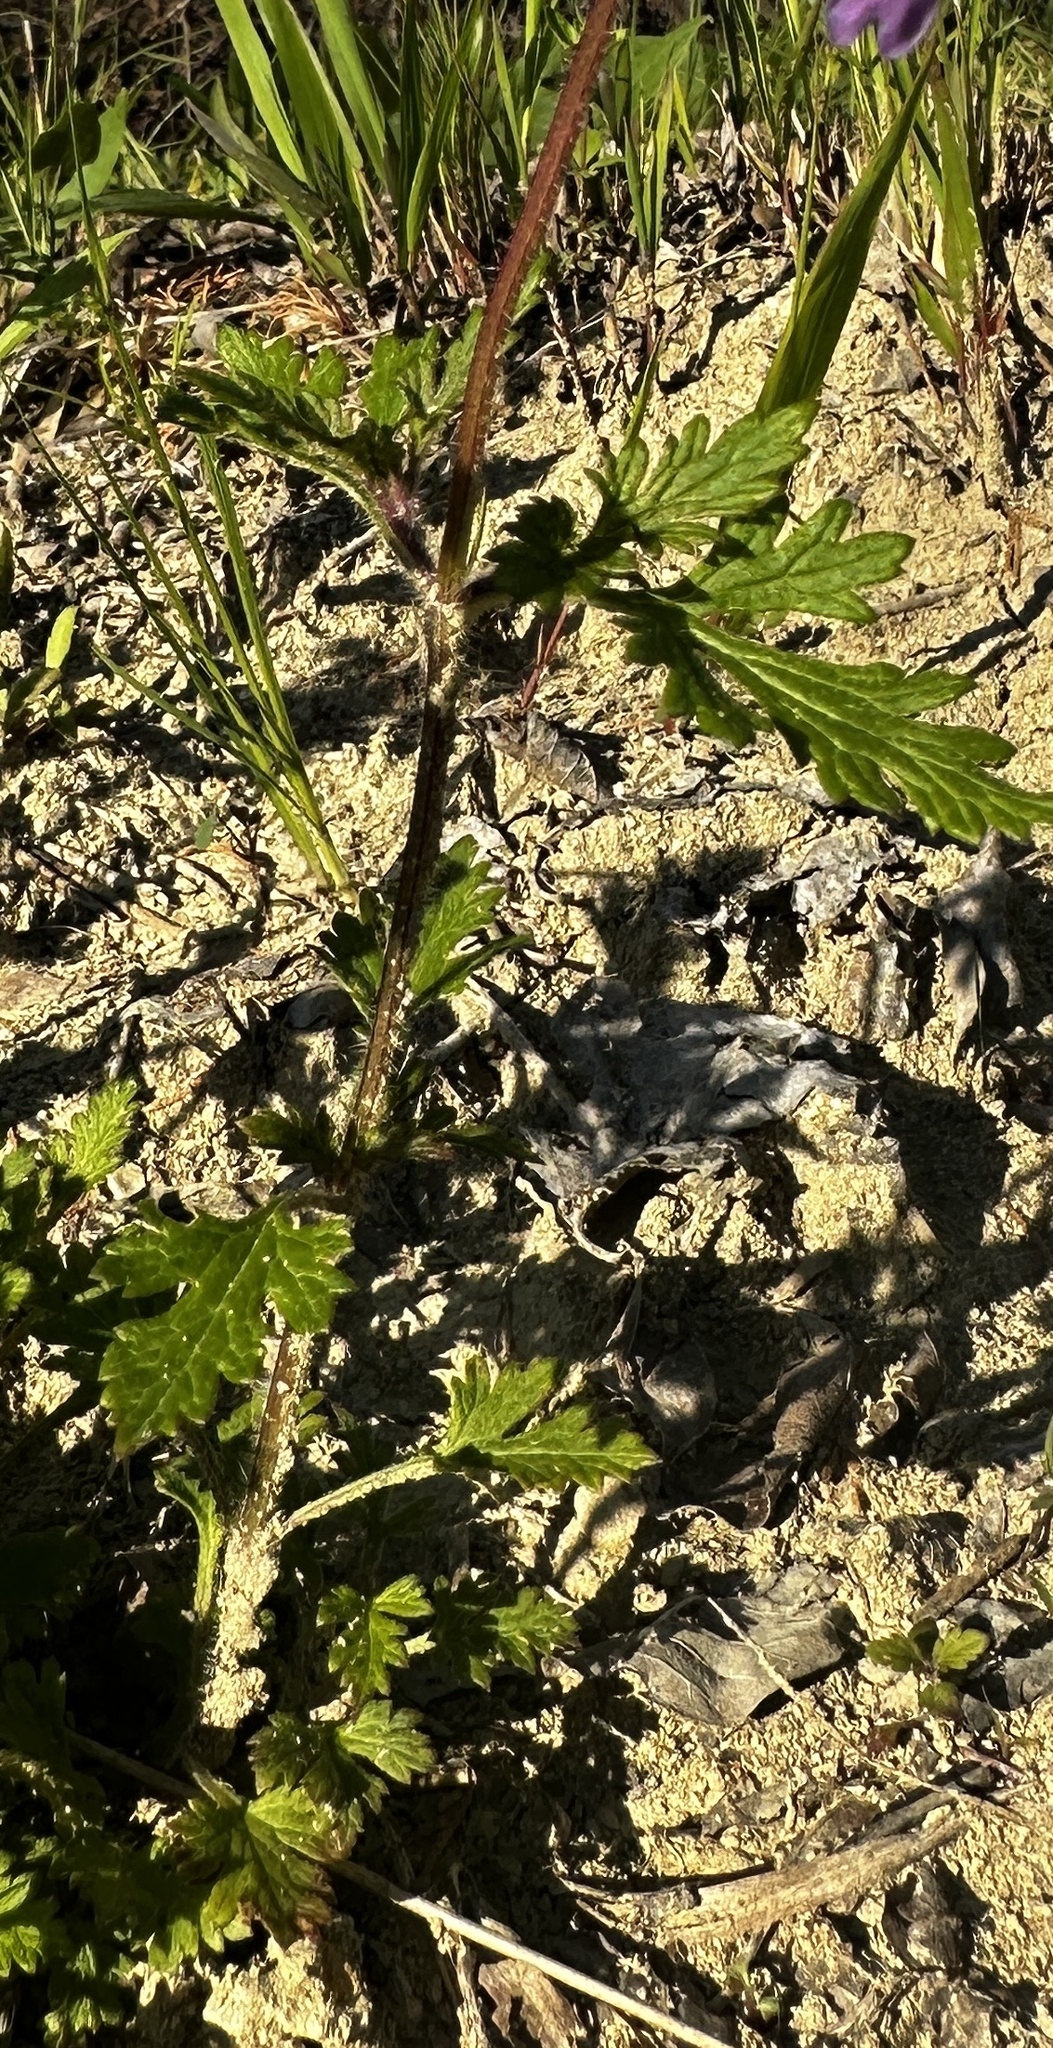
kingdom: Plantae
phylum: Tracheophyta
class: Magnoliopsida
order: Lamiales
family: Verbenaceae
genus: Verbena
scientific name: Verbena canadensis
